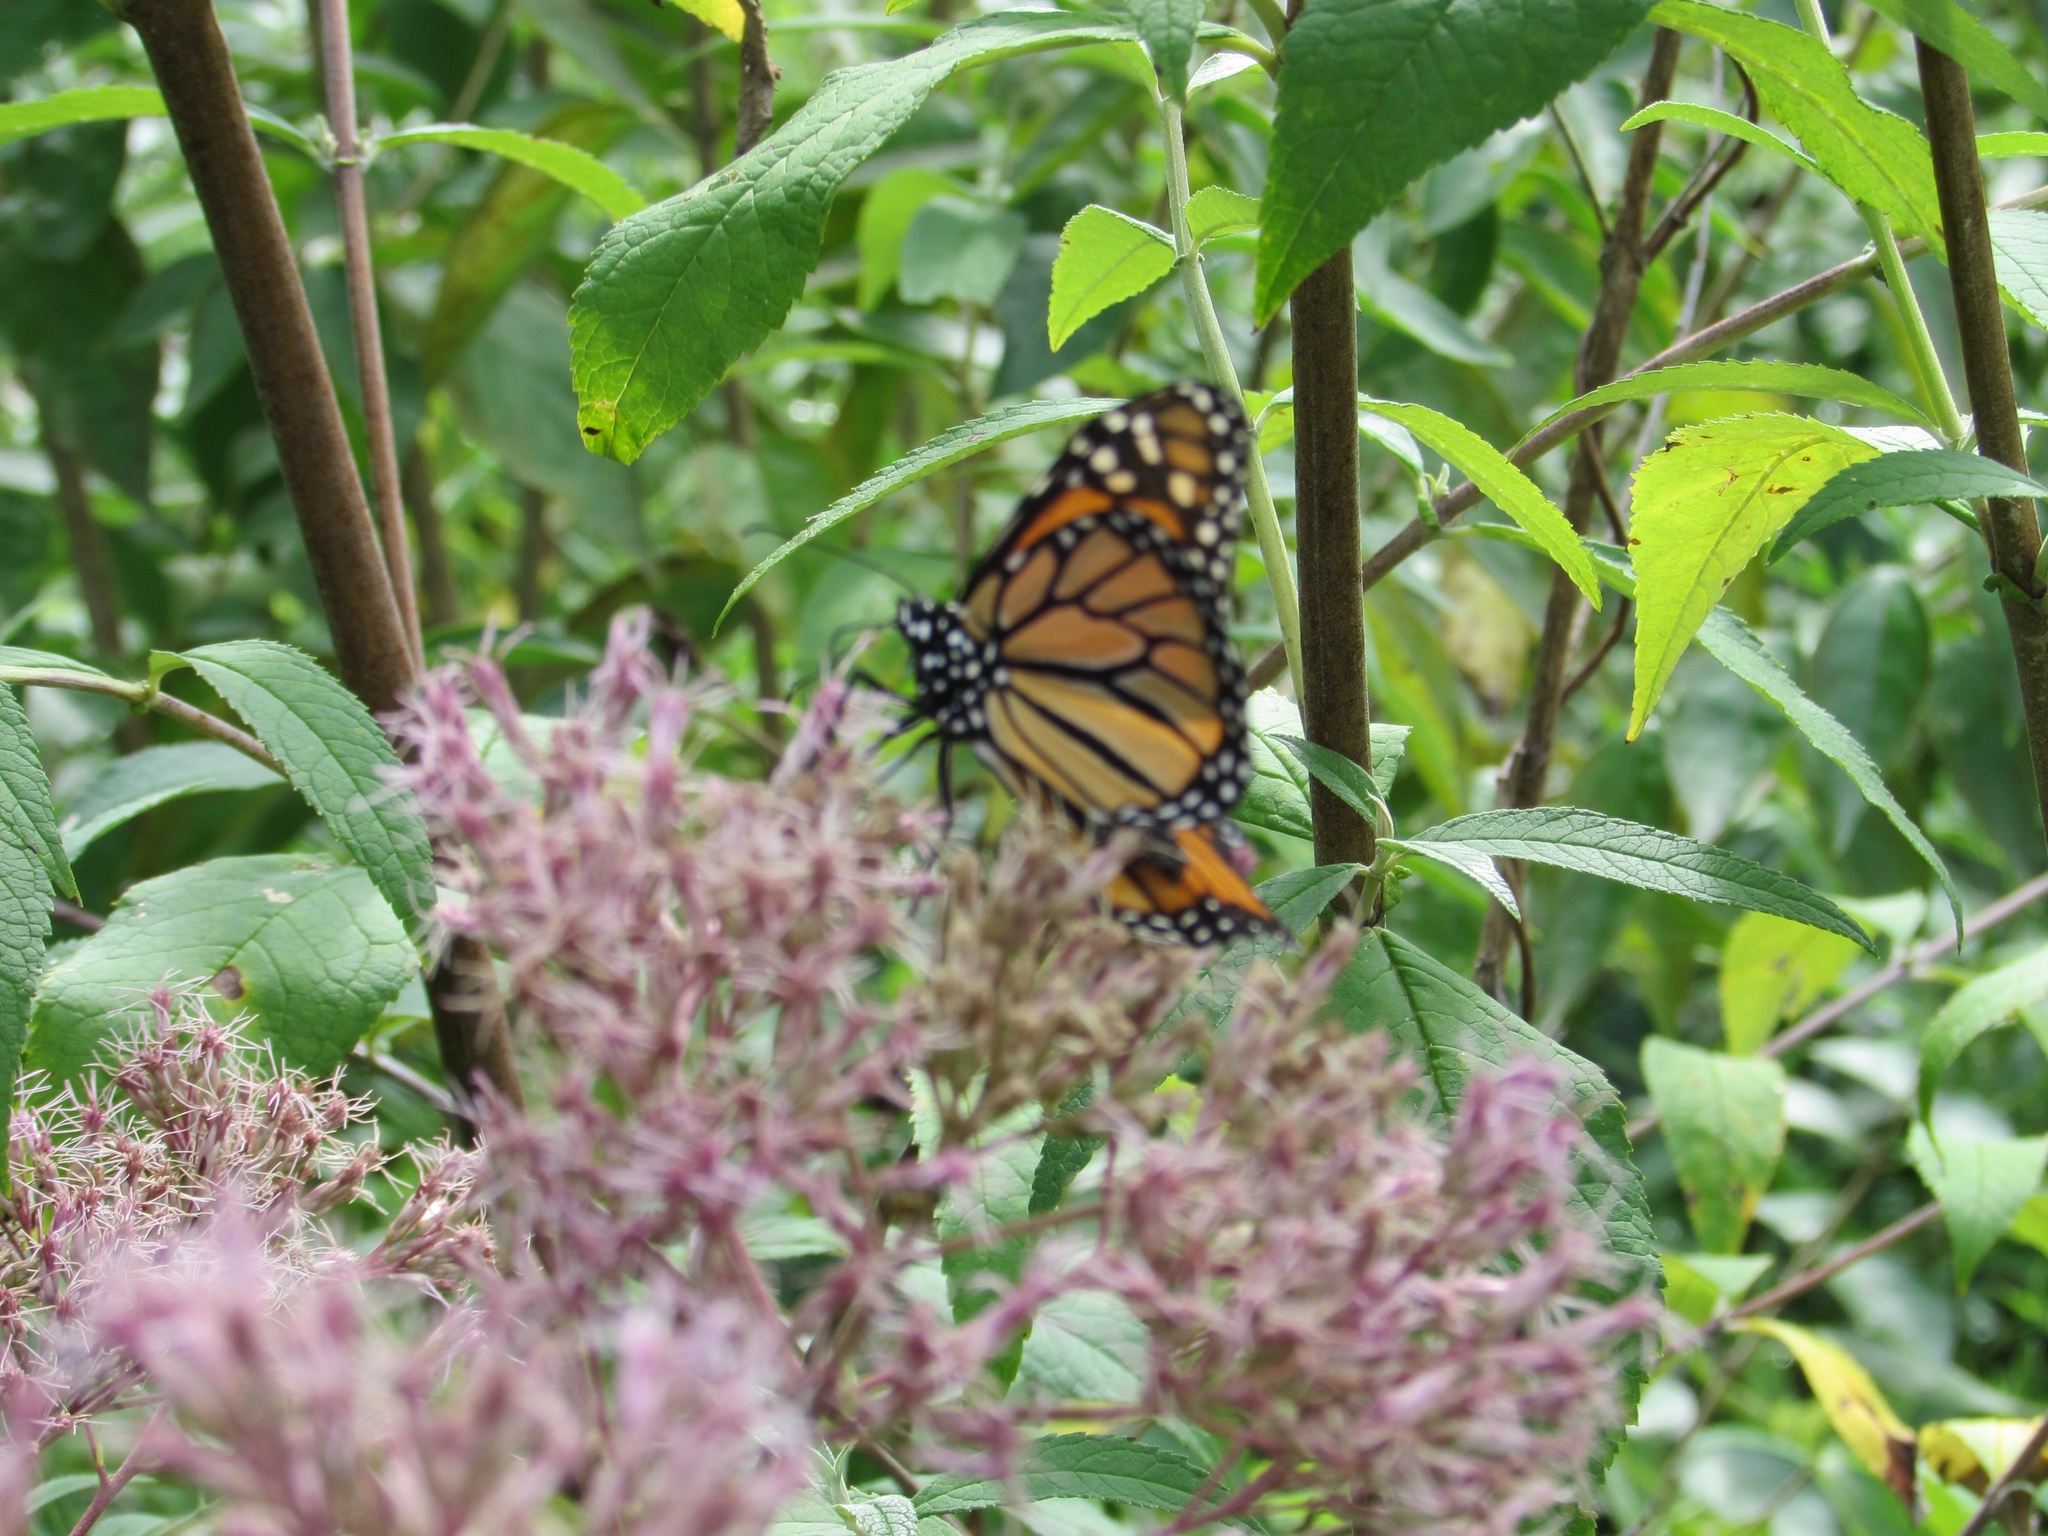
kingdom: Animalia
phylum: Arthropoda
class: Insecta
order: Lepidoptera
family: Nymphalidae
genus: Danaus
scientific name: Danaus plexippus
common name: Monarch
